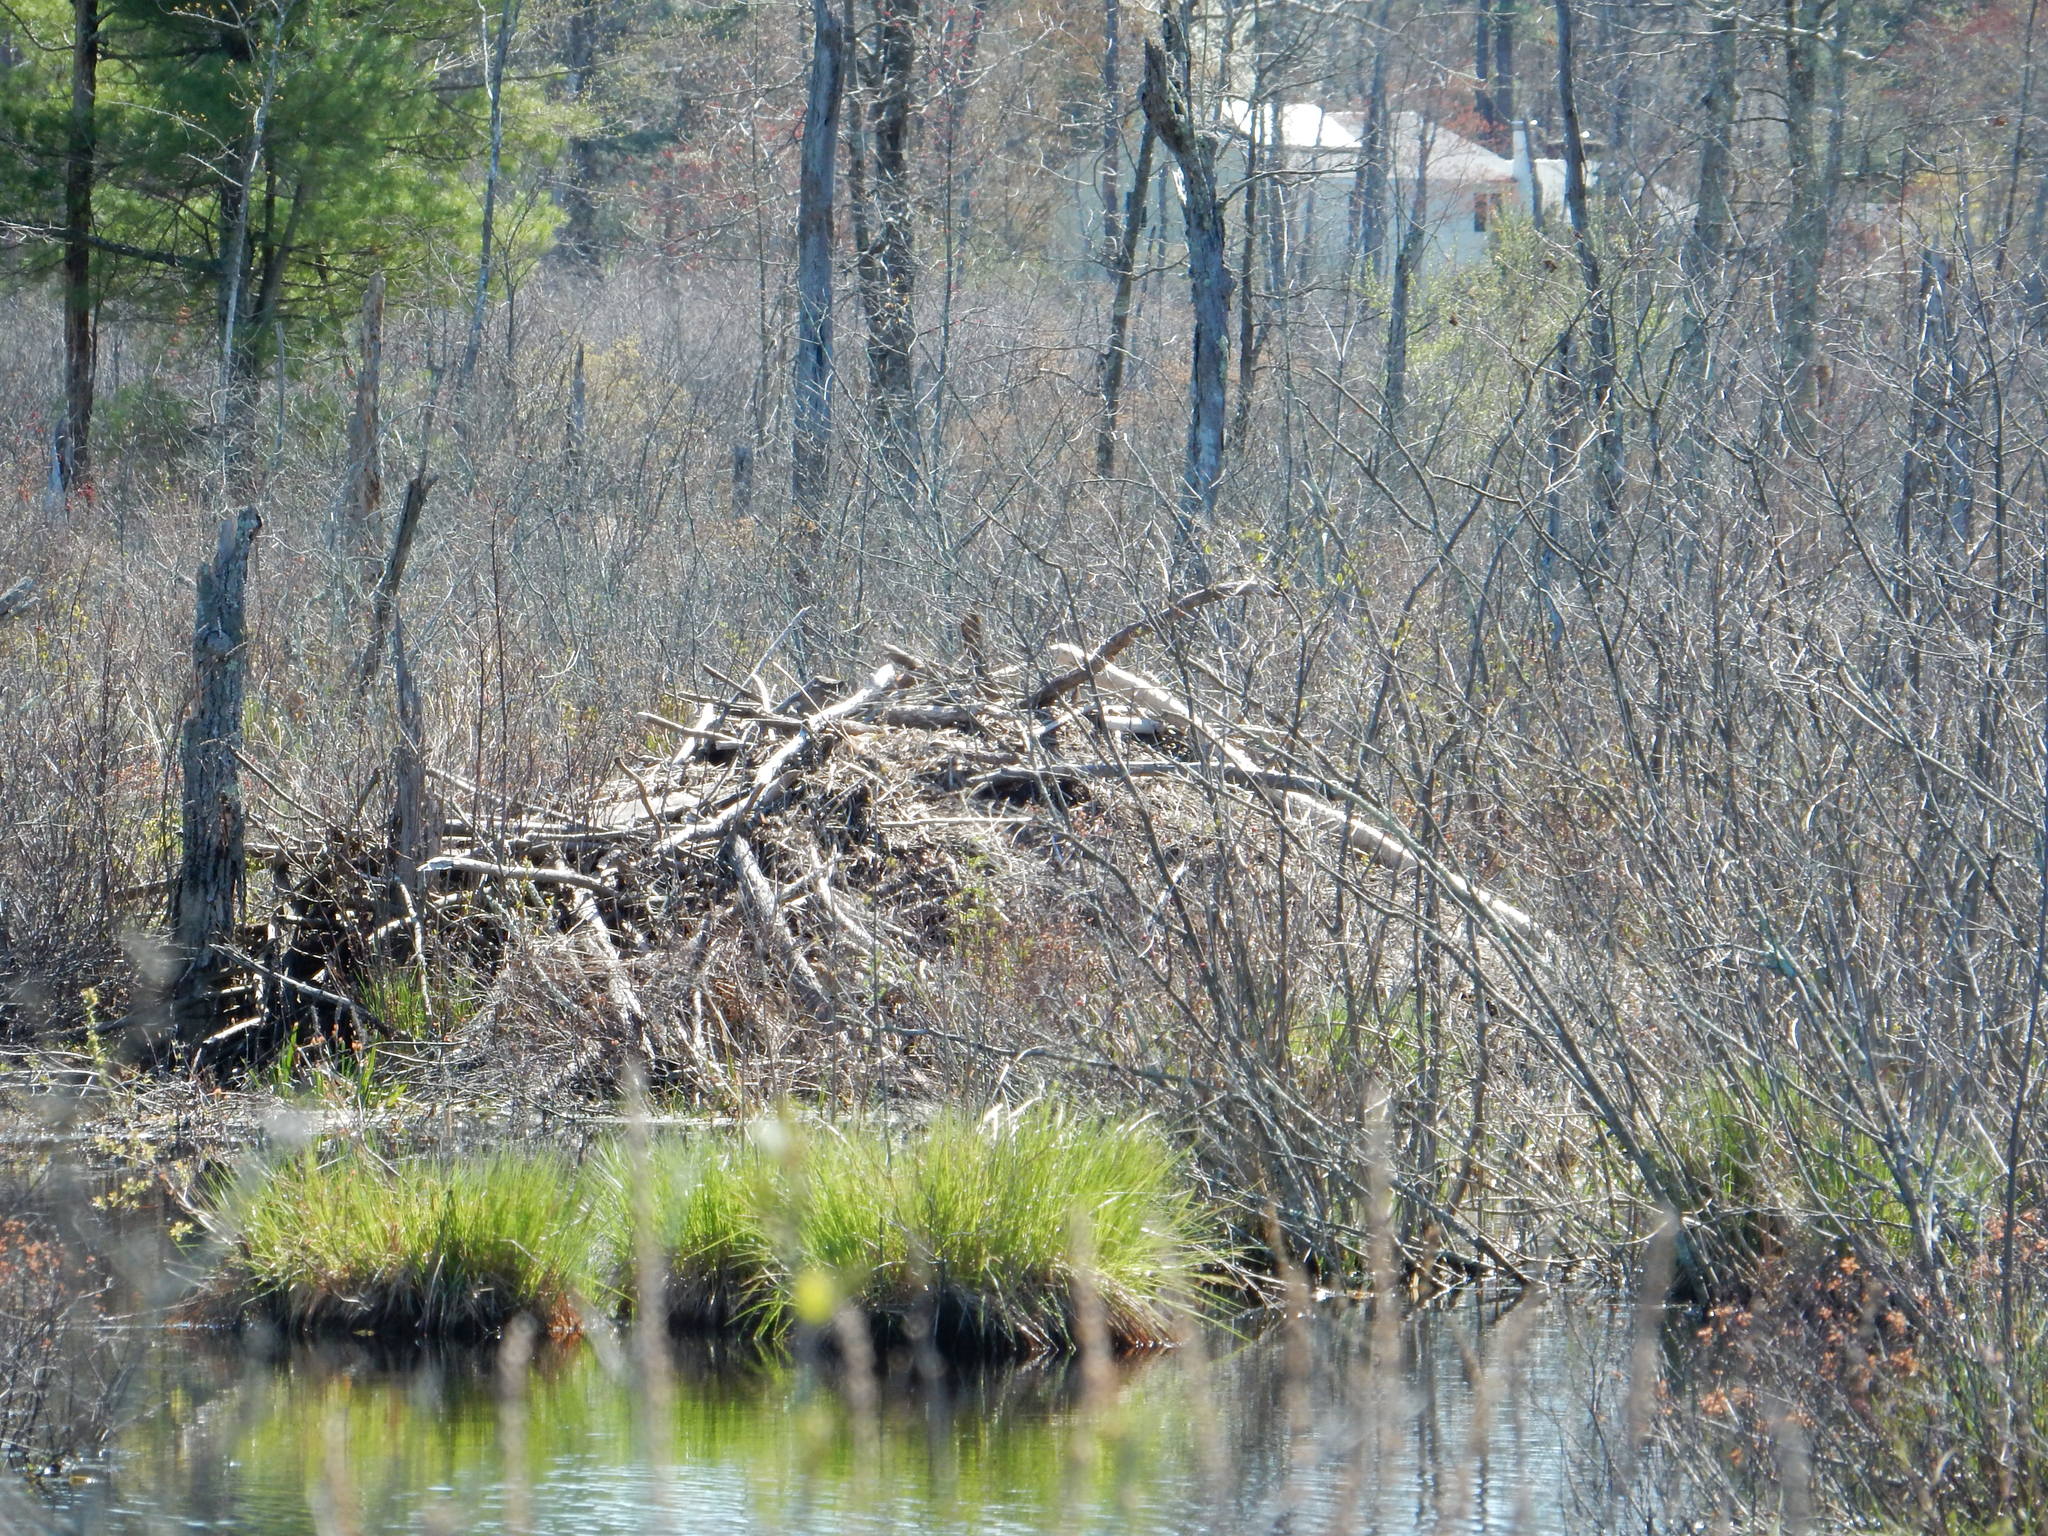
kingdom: Animalia
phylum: Chordata
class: Mammalia
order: Rodentia
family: Castoridae
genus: Castor
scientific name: Castor canadensis
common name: American beaver
